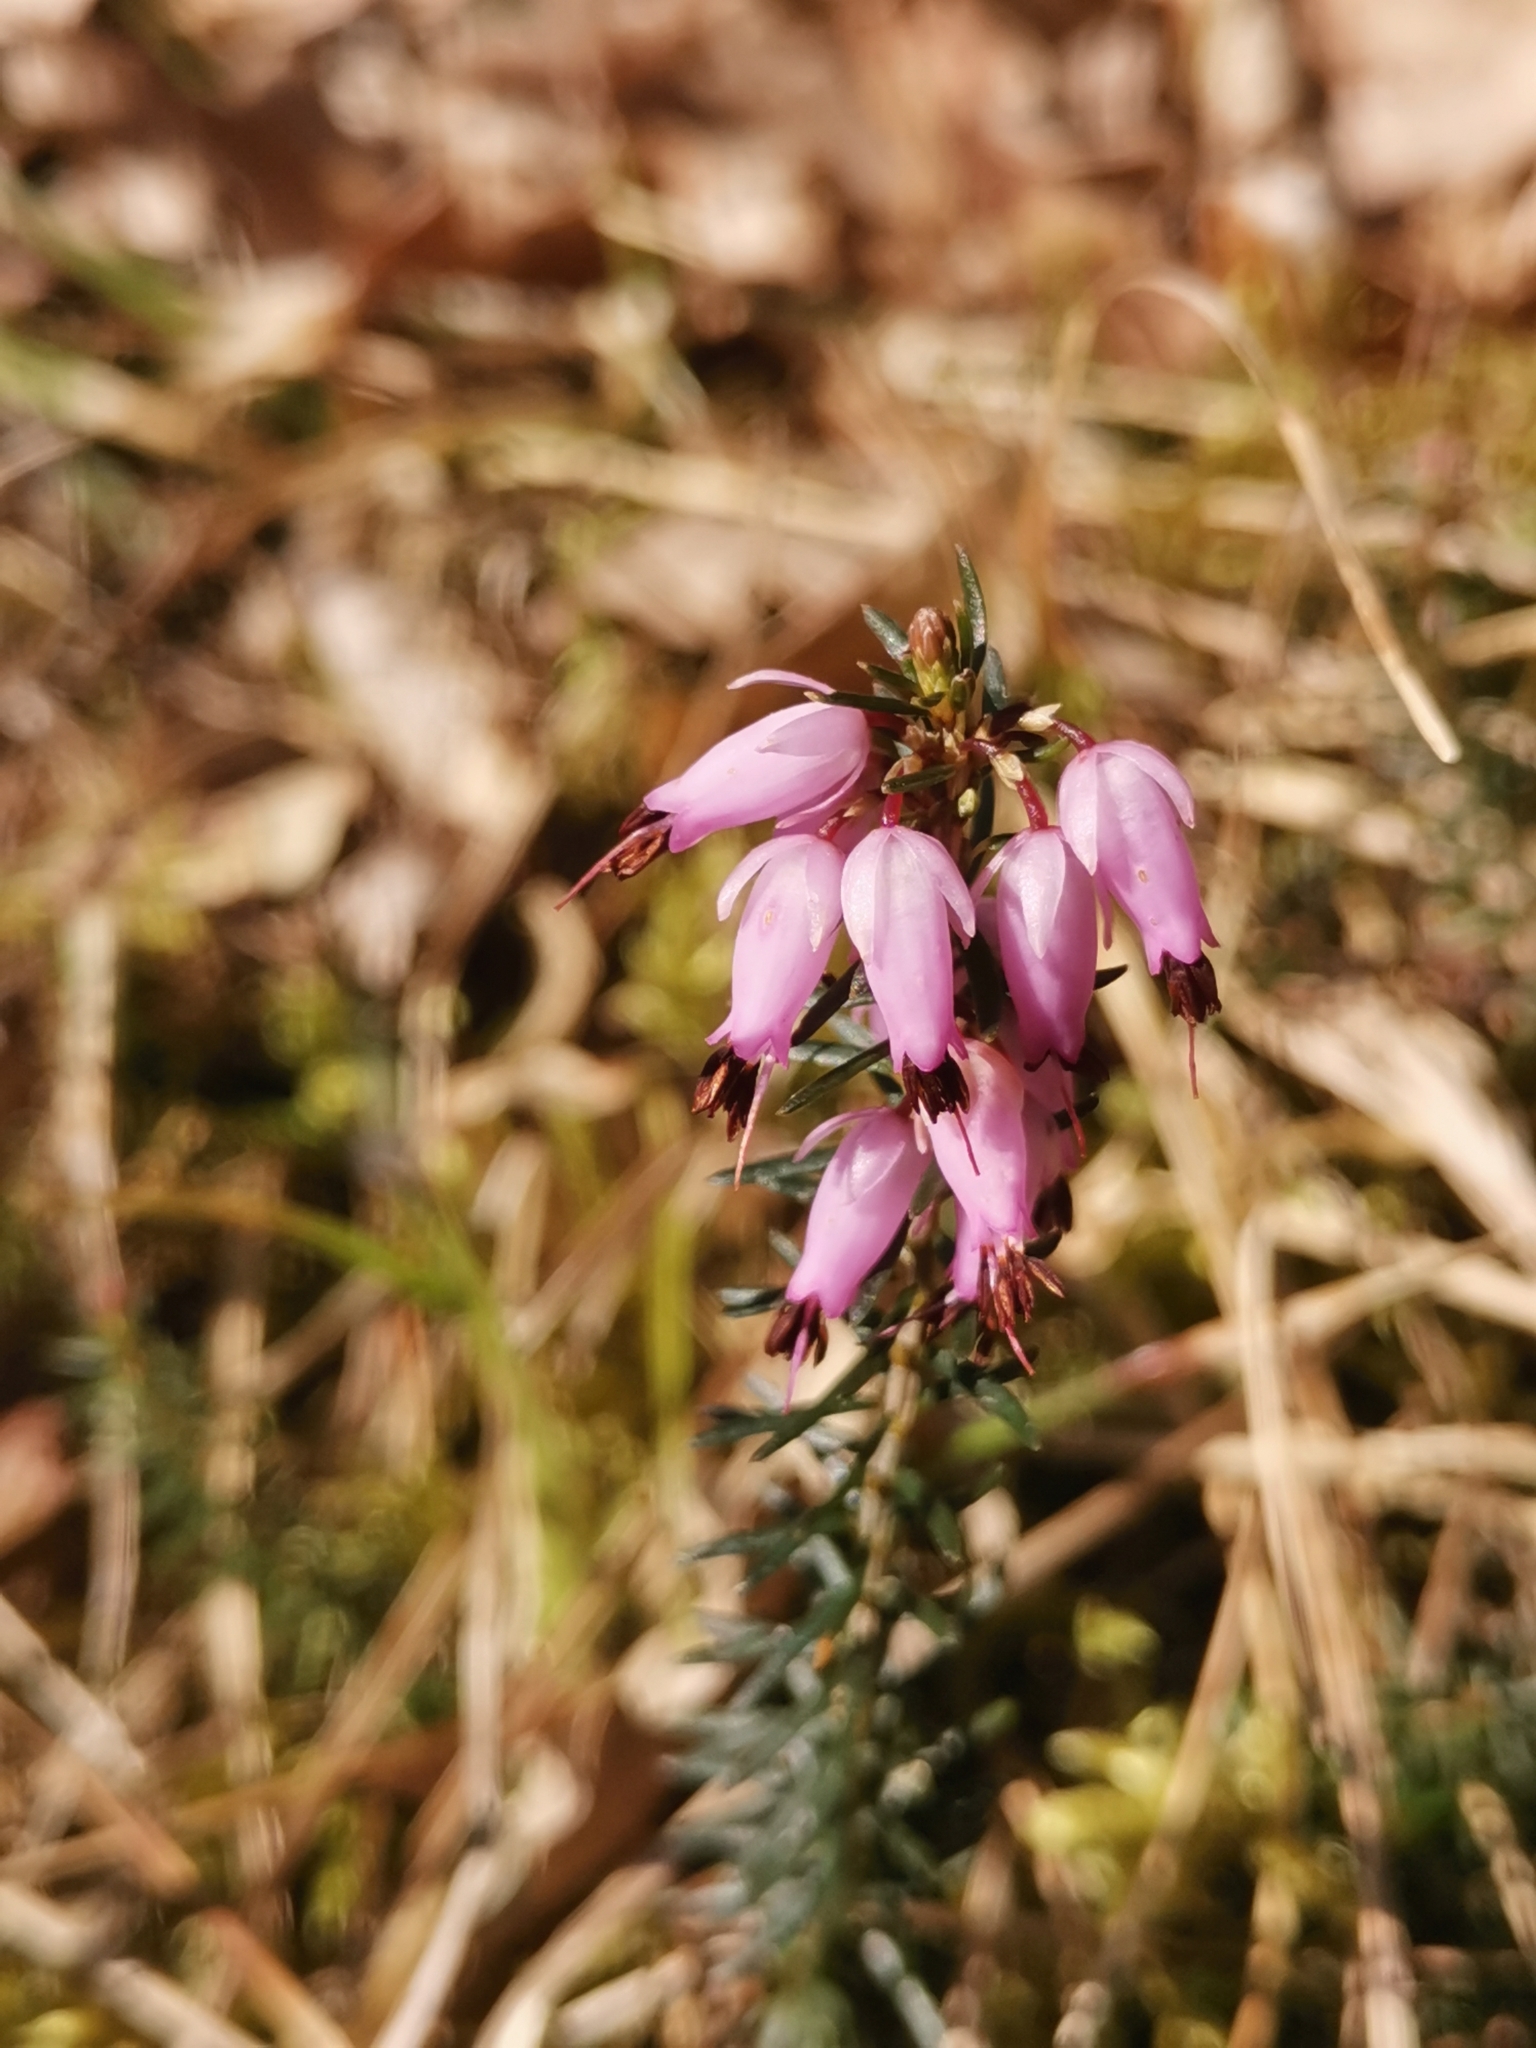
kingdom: Plantae
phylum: Tracheophyta
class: Magnoliopsida
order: Ericales
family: Ericaceae
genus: Erica
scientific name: Erica carnea
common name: Winter heath
